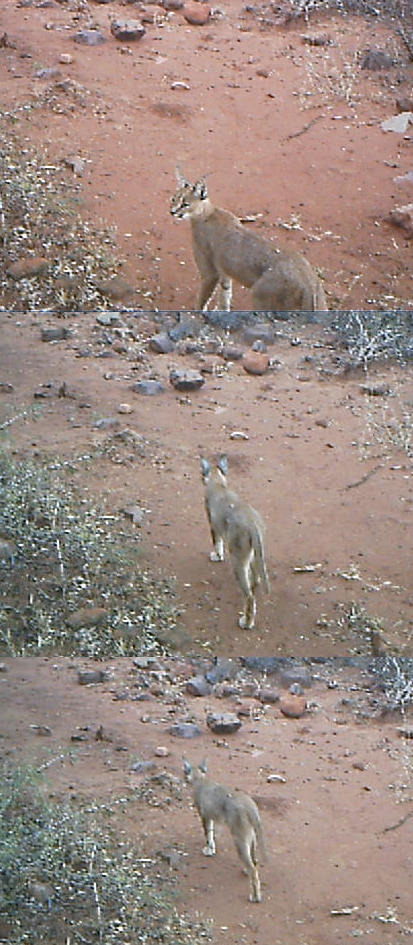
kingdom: Animalia
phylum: Chordata
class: Mammalia
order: Carnivora
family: Felidae
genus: Caracal
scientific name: Caracal caracal
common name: Caracal
